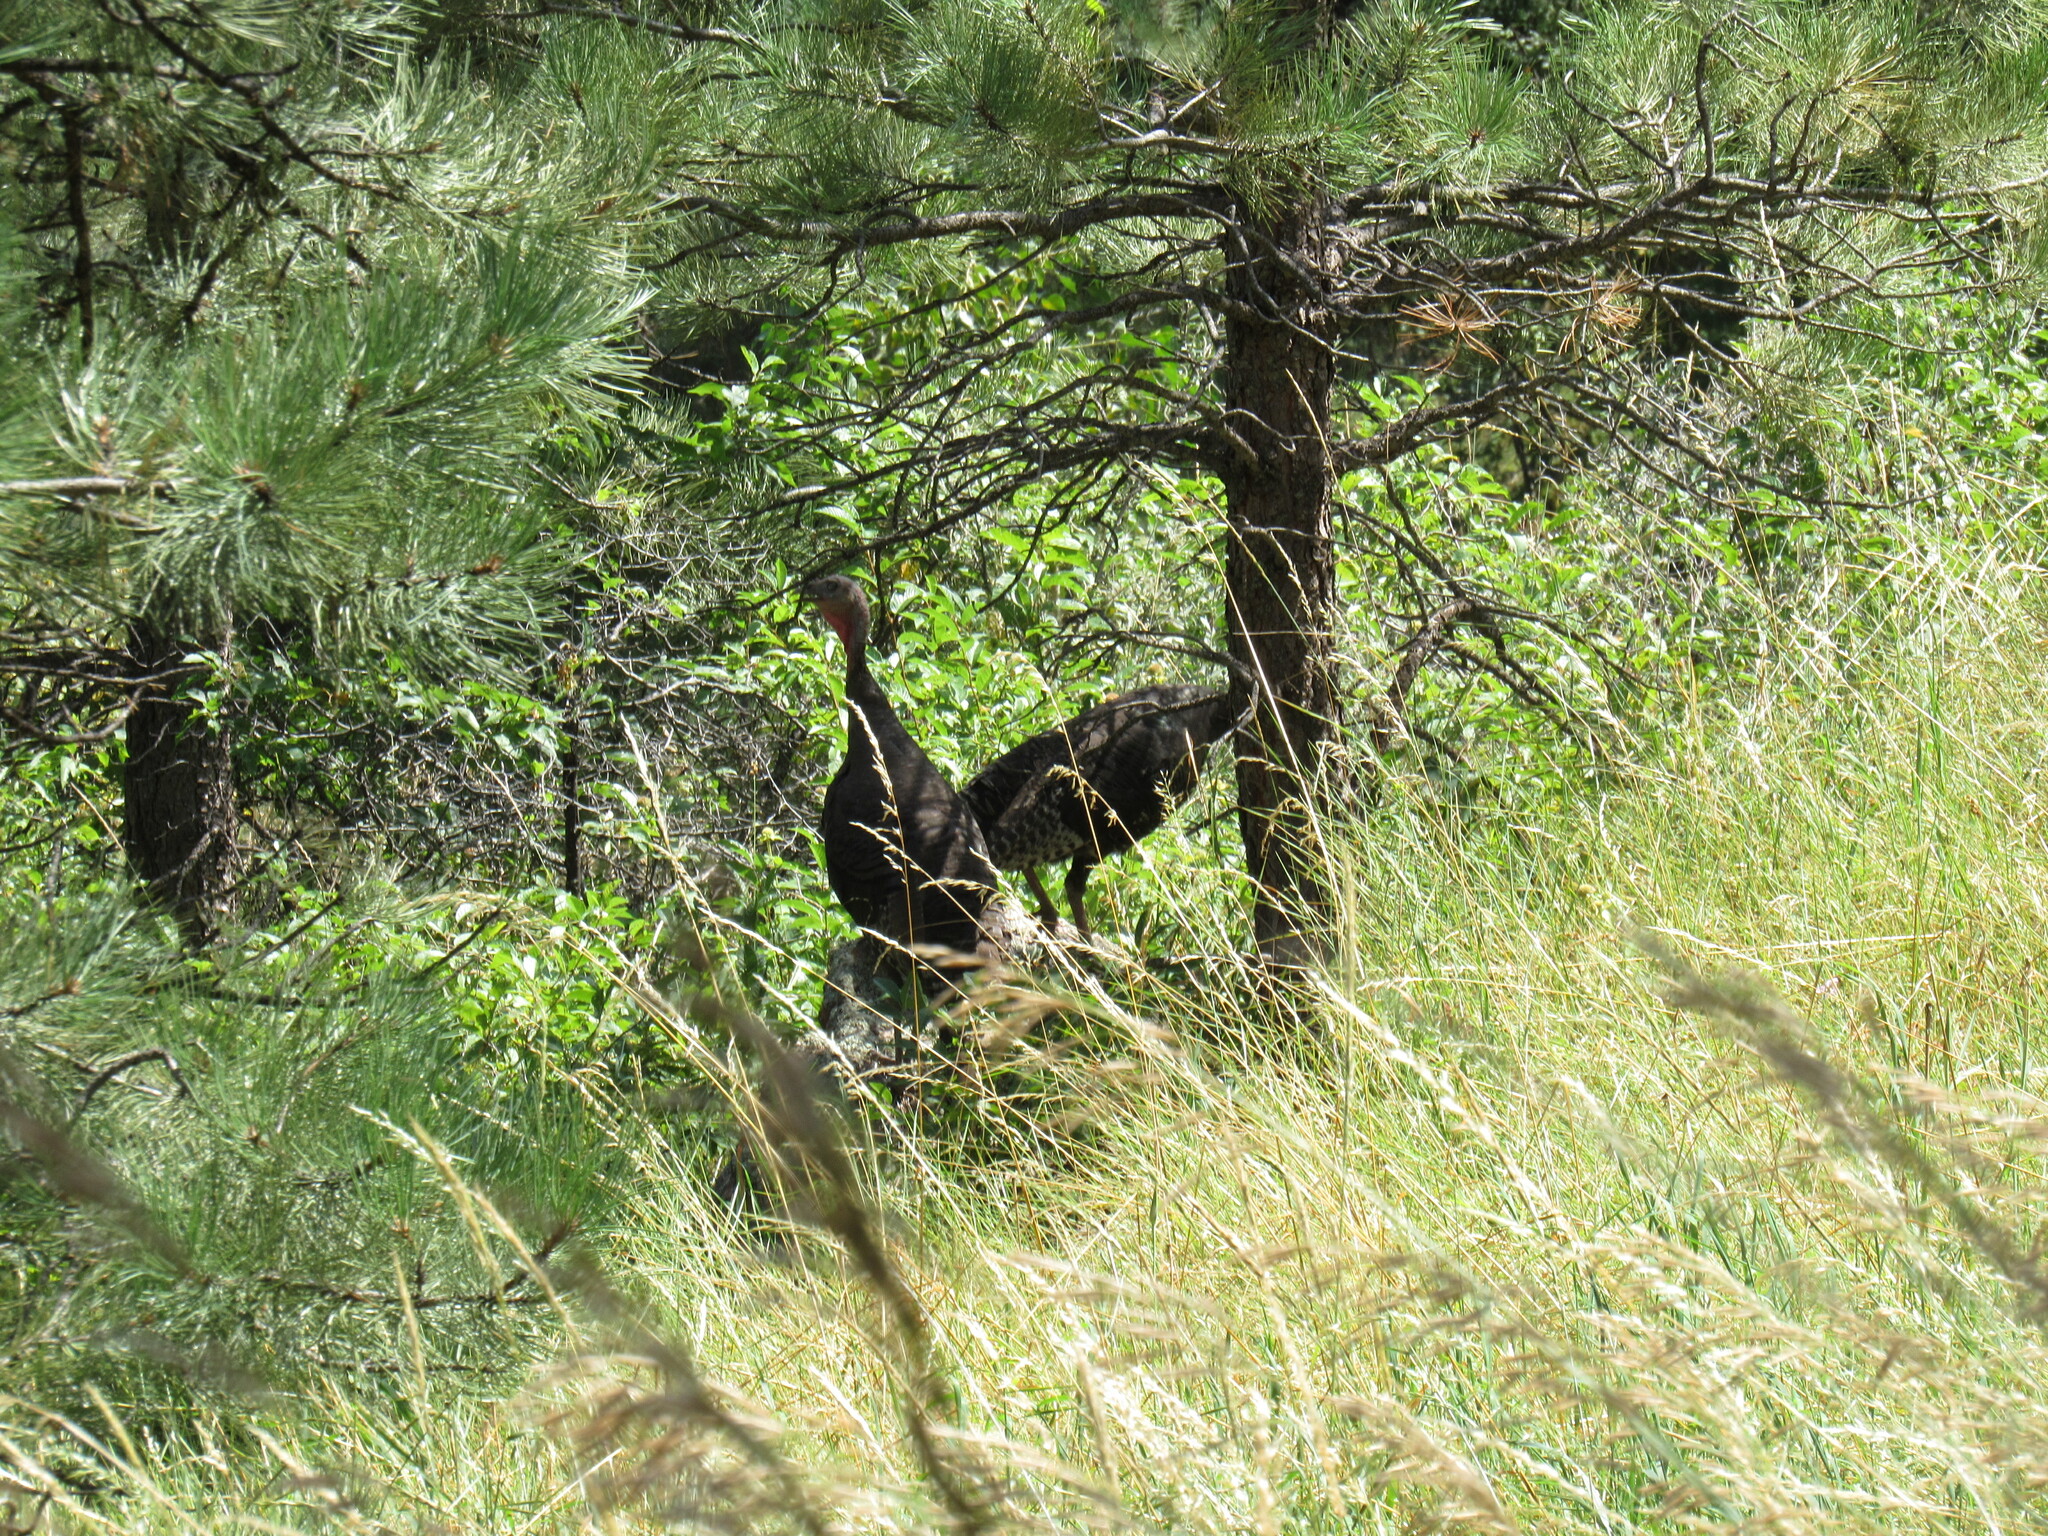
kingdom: Animalia
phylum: Chordata
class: Aves
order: Galliformes
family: Phasianidae
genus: Meleagris
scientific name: Meleagris gallopavo
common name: Wild turkey
